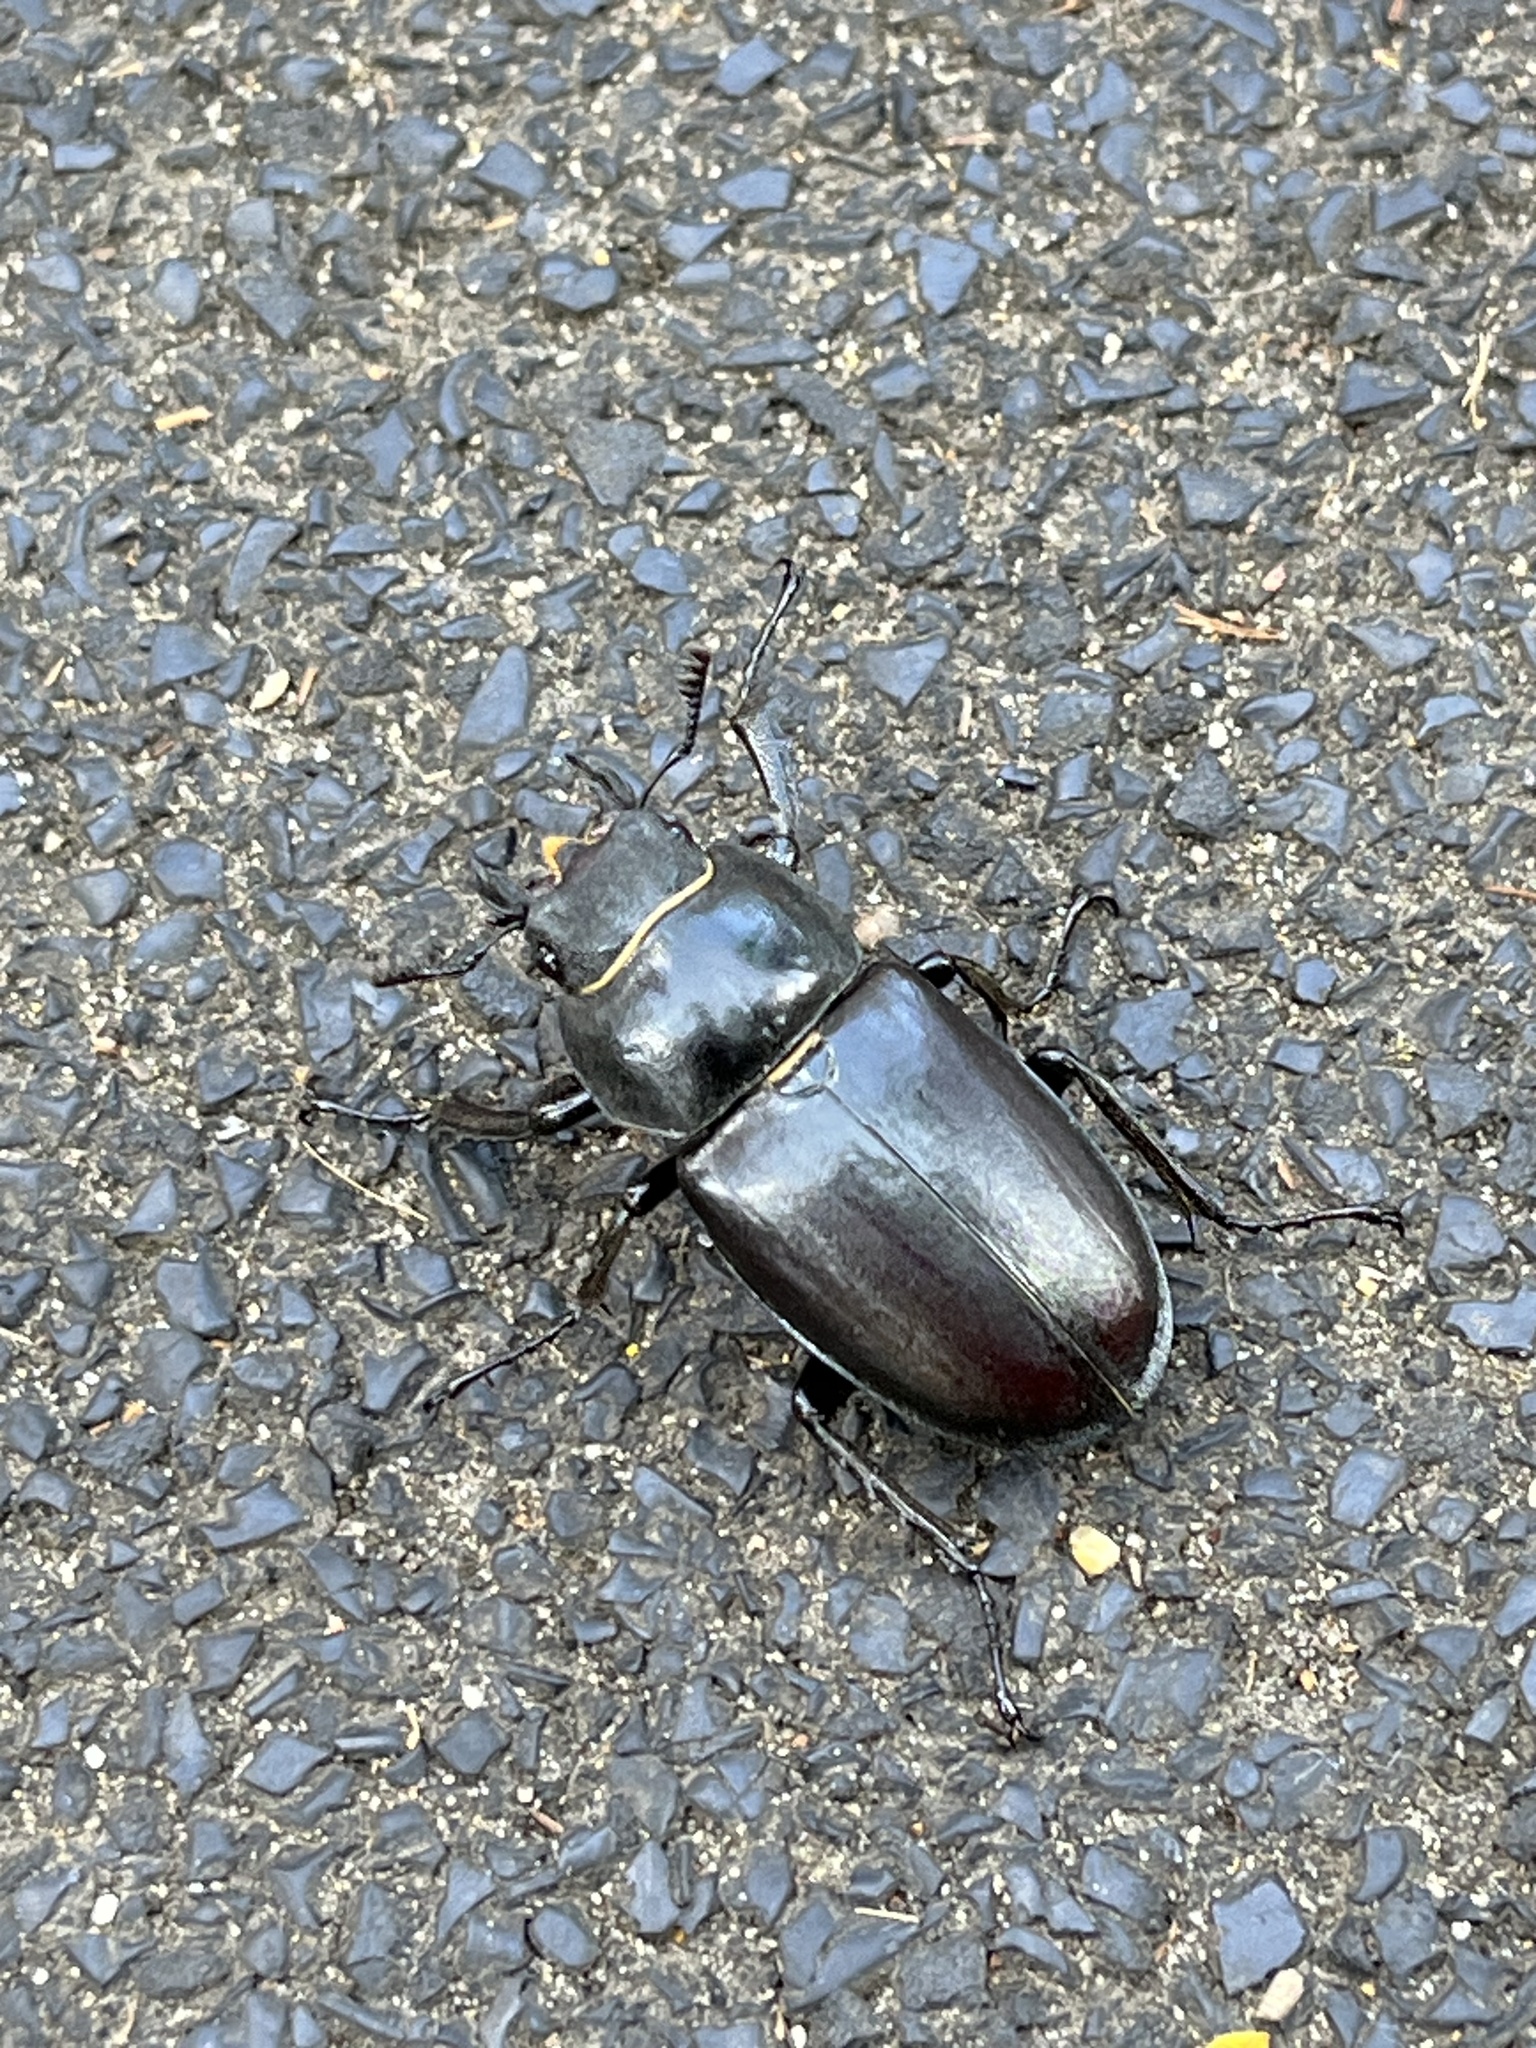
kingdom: Animalia
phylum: Arthropoda
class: Insecta
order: Coleoptera
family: Lucanidae
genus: Lucanus
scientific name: Lucanus cervus
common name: Stag beetle
